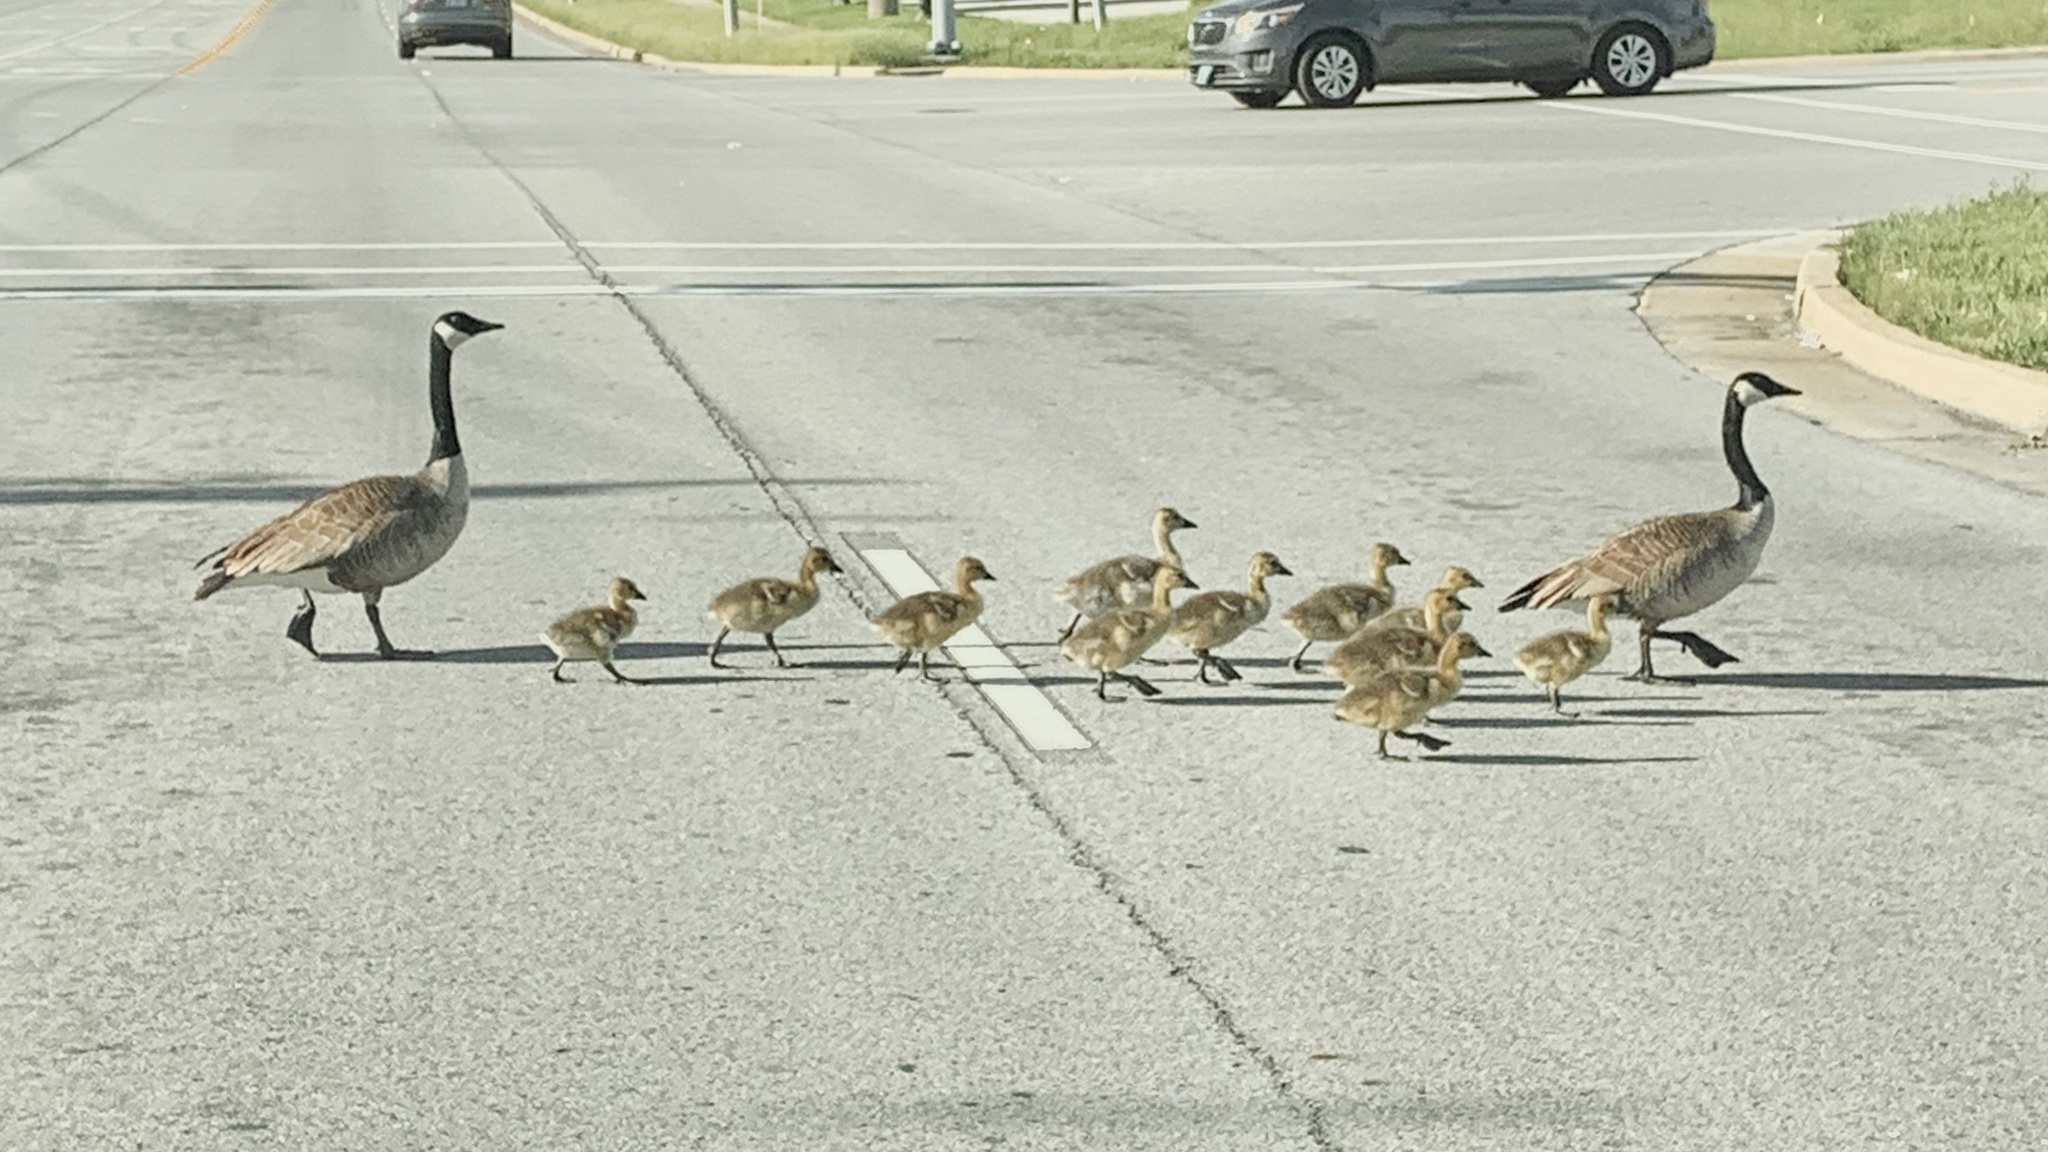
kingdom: Animalia
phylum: Chordata
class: Aves
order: Anseriformes
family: Anatidae
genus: Branta
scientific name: Branta canadensis
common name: Canada goose
